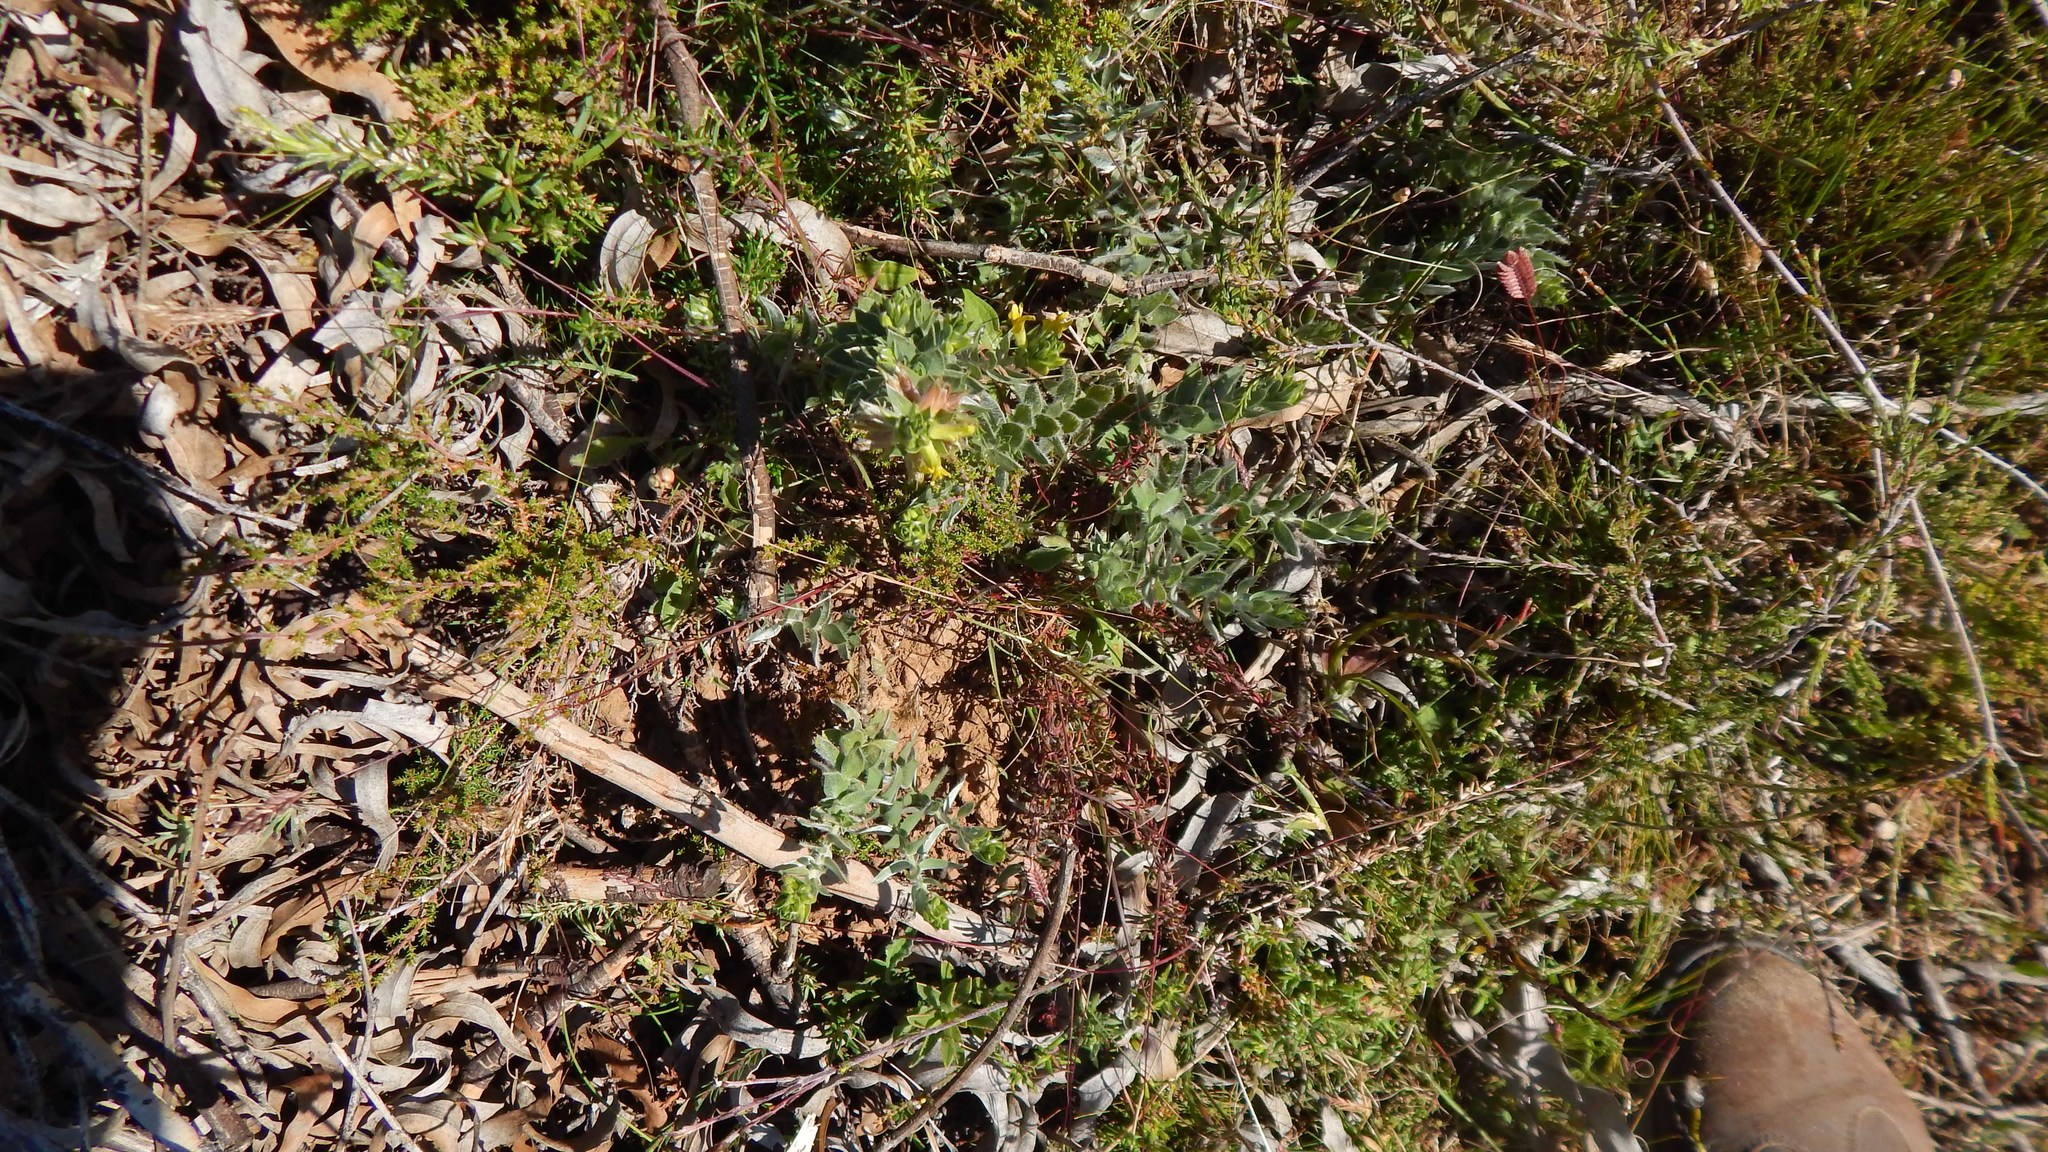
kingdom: Plantae
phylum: Tracheophyta
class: Magnoliopsida
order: Fabales
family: Fabaceae
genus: Xiphotheca
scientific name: Xiphotheca lanceolata
